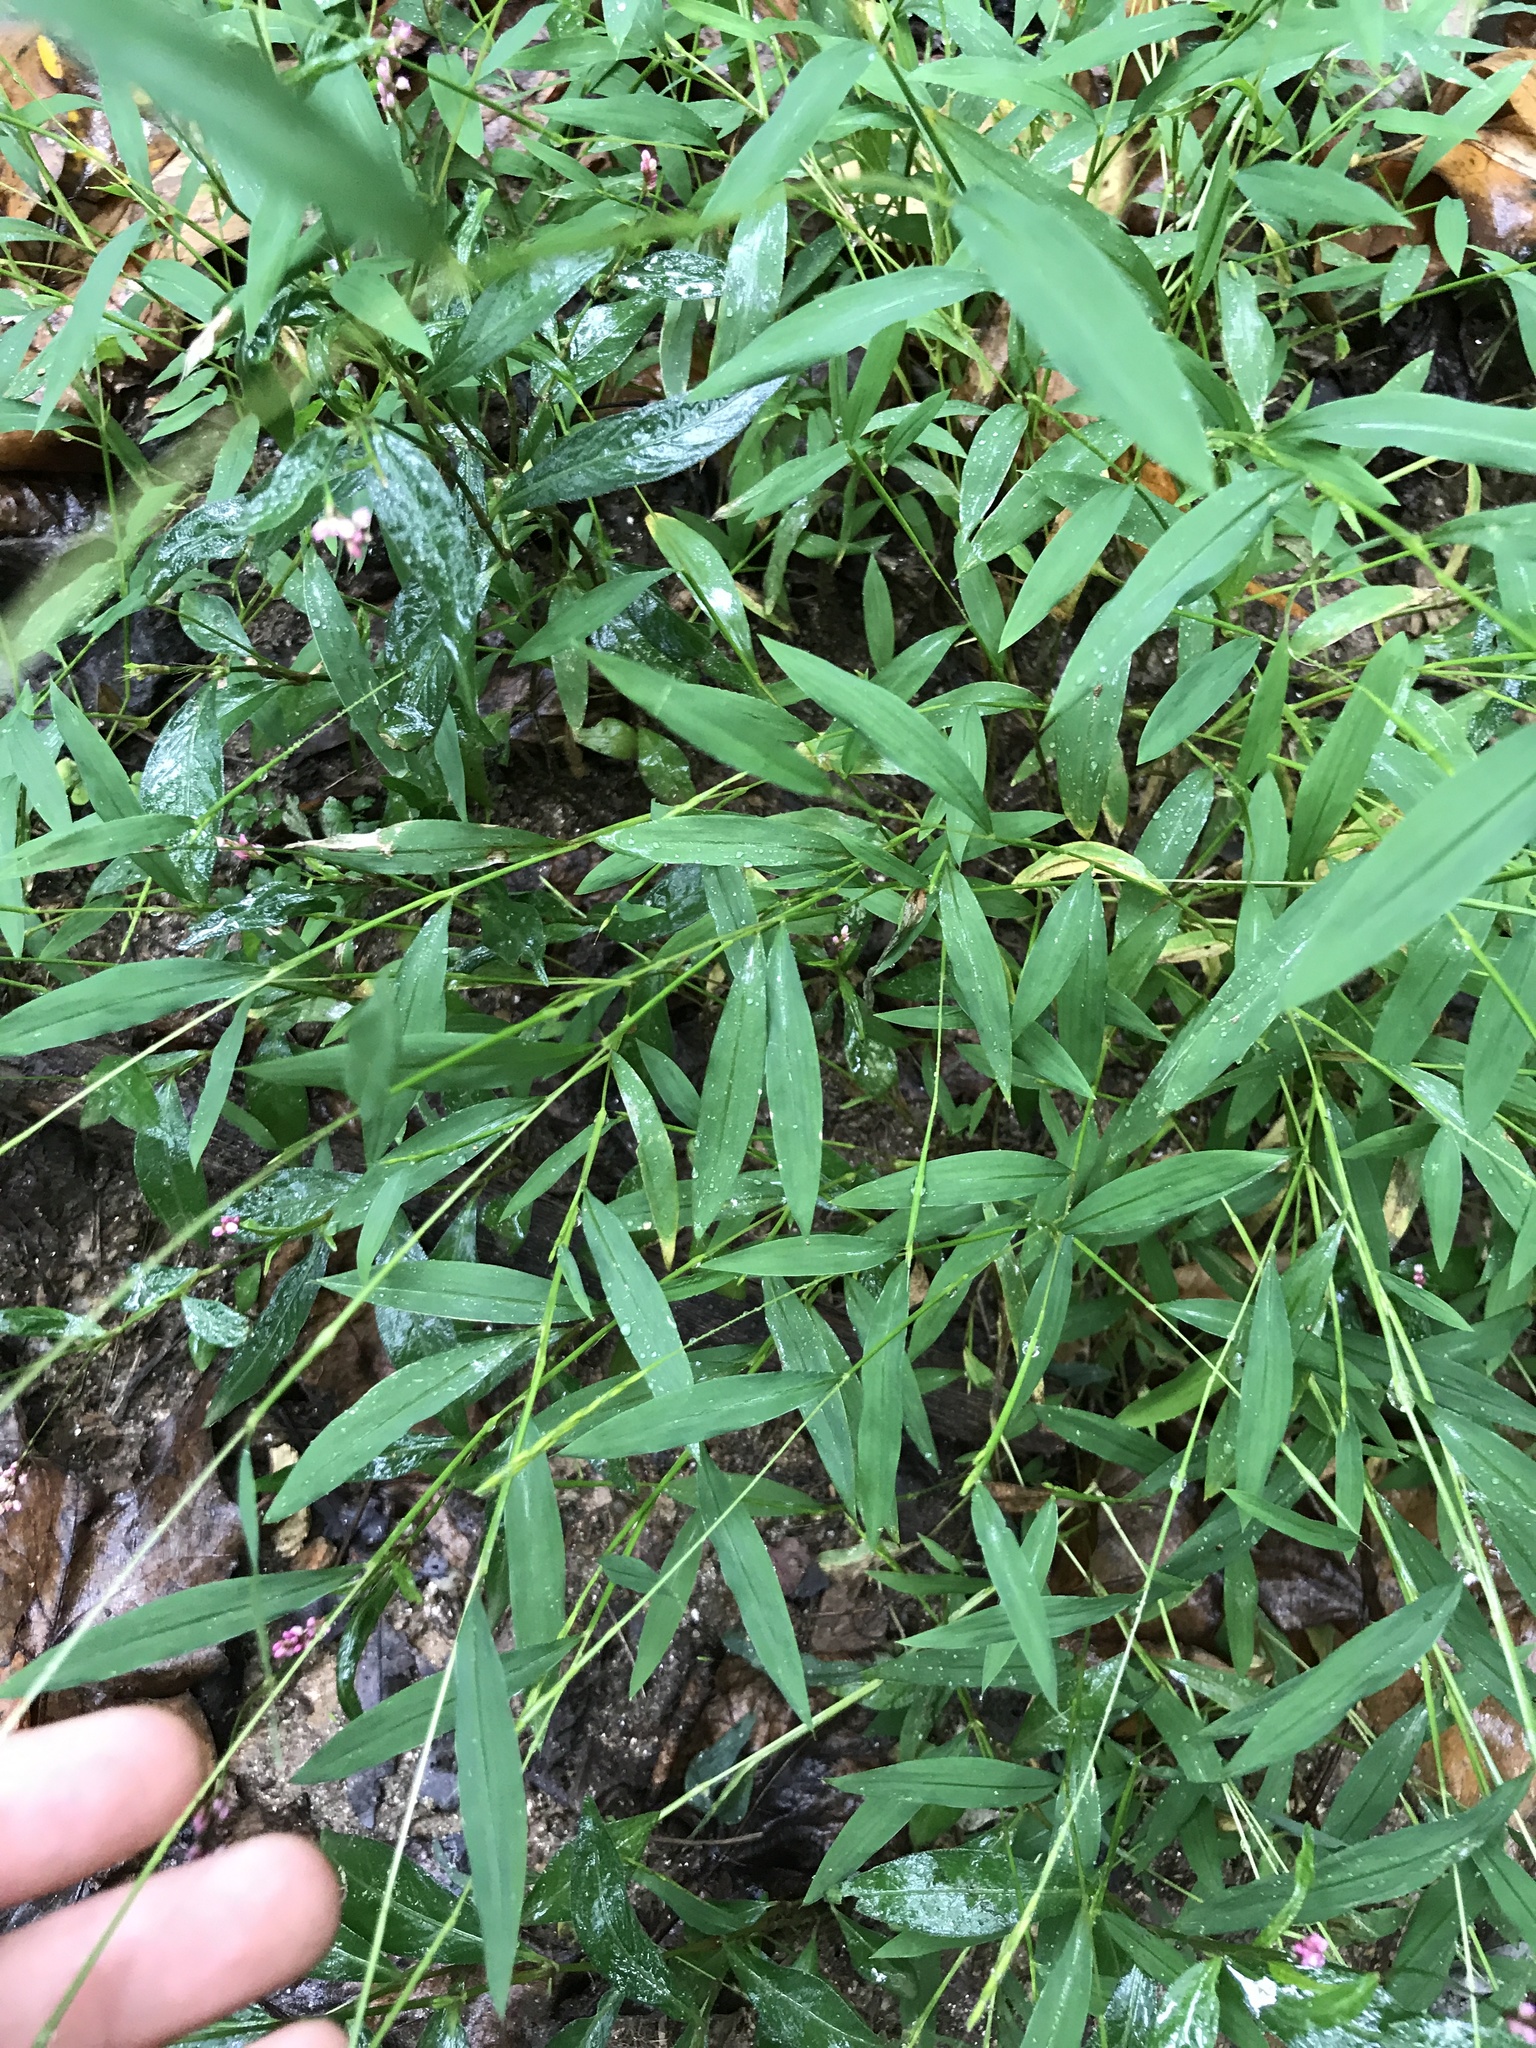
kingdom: Plantae
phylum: Tracheophyta
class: Liliopsida
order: Poales
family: Poaceae
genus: Microstegium
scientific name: Microstegium vimineum
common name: Japanese stiltgrass
